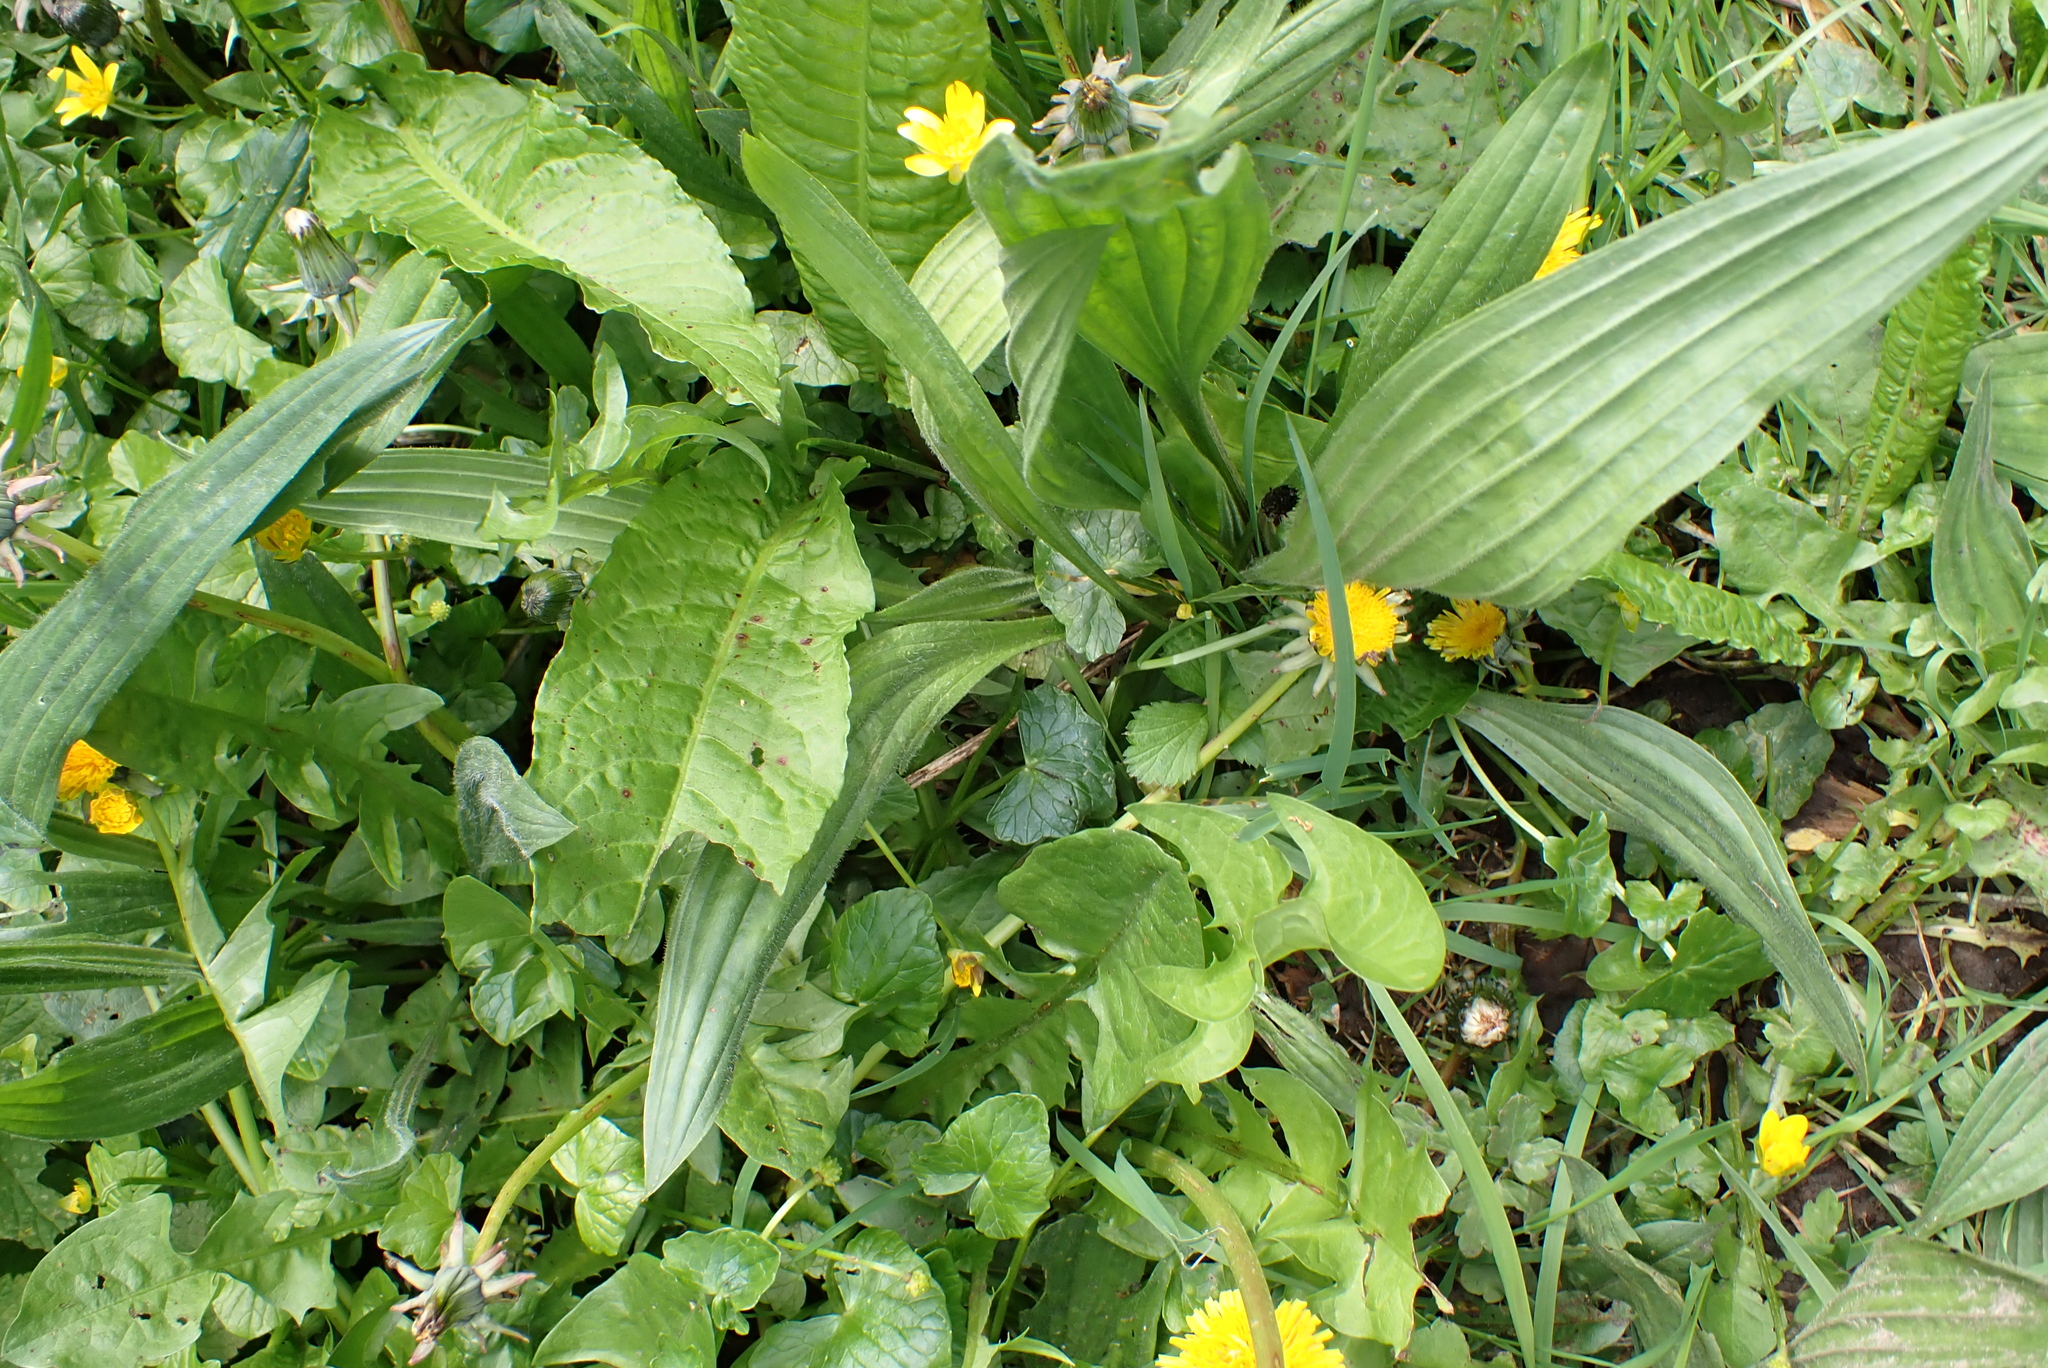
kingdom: Plantae
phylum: Tracheophyta
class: Magnoliopsida
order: Lamiales
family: Plantaginaceae
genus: Plantago
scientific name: Plantago lanceolata
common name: Ribwort plantain
